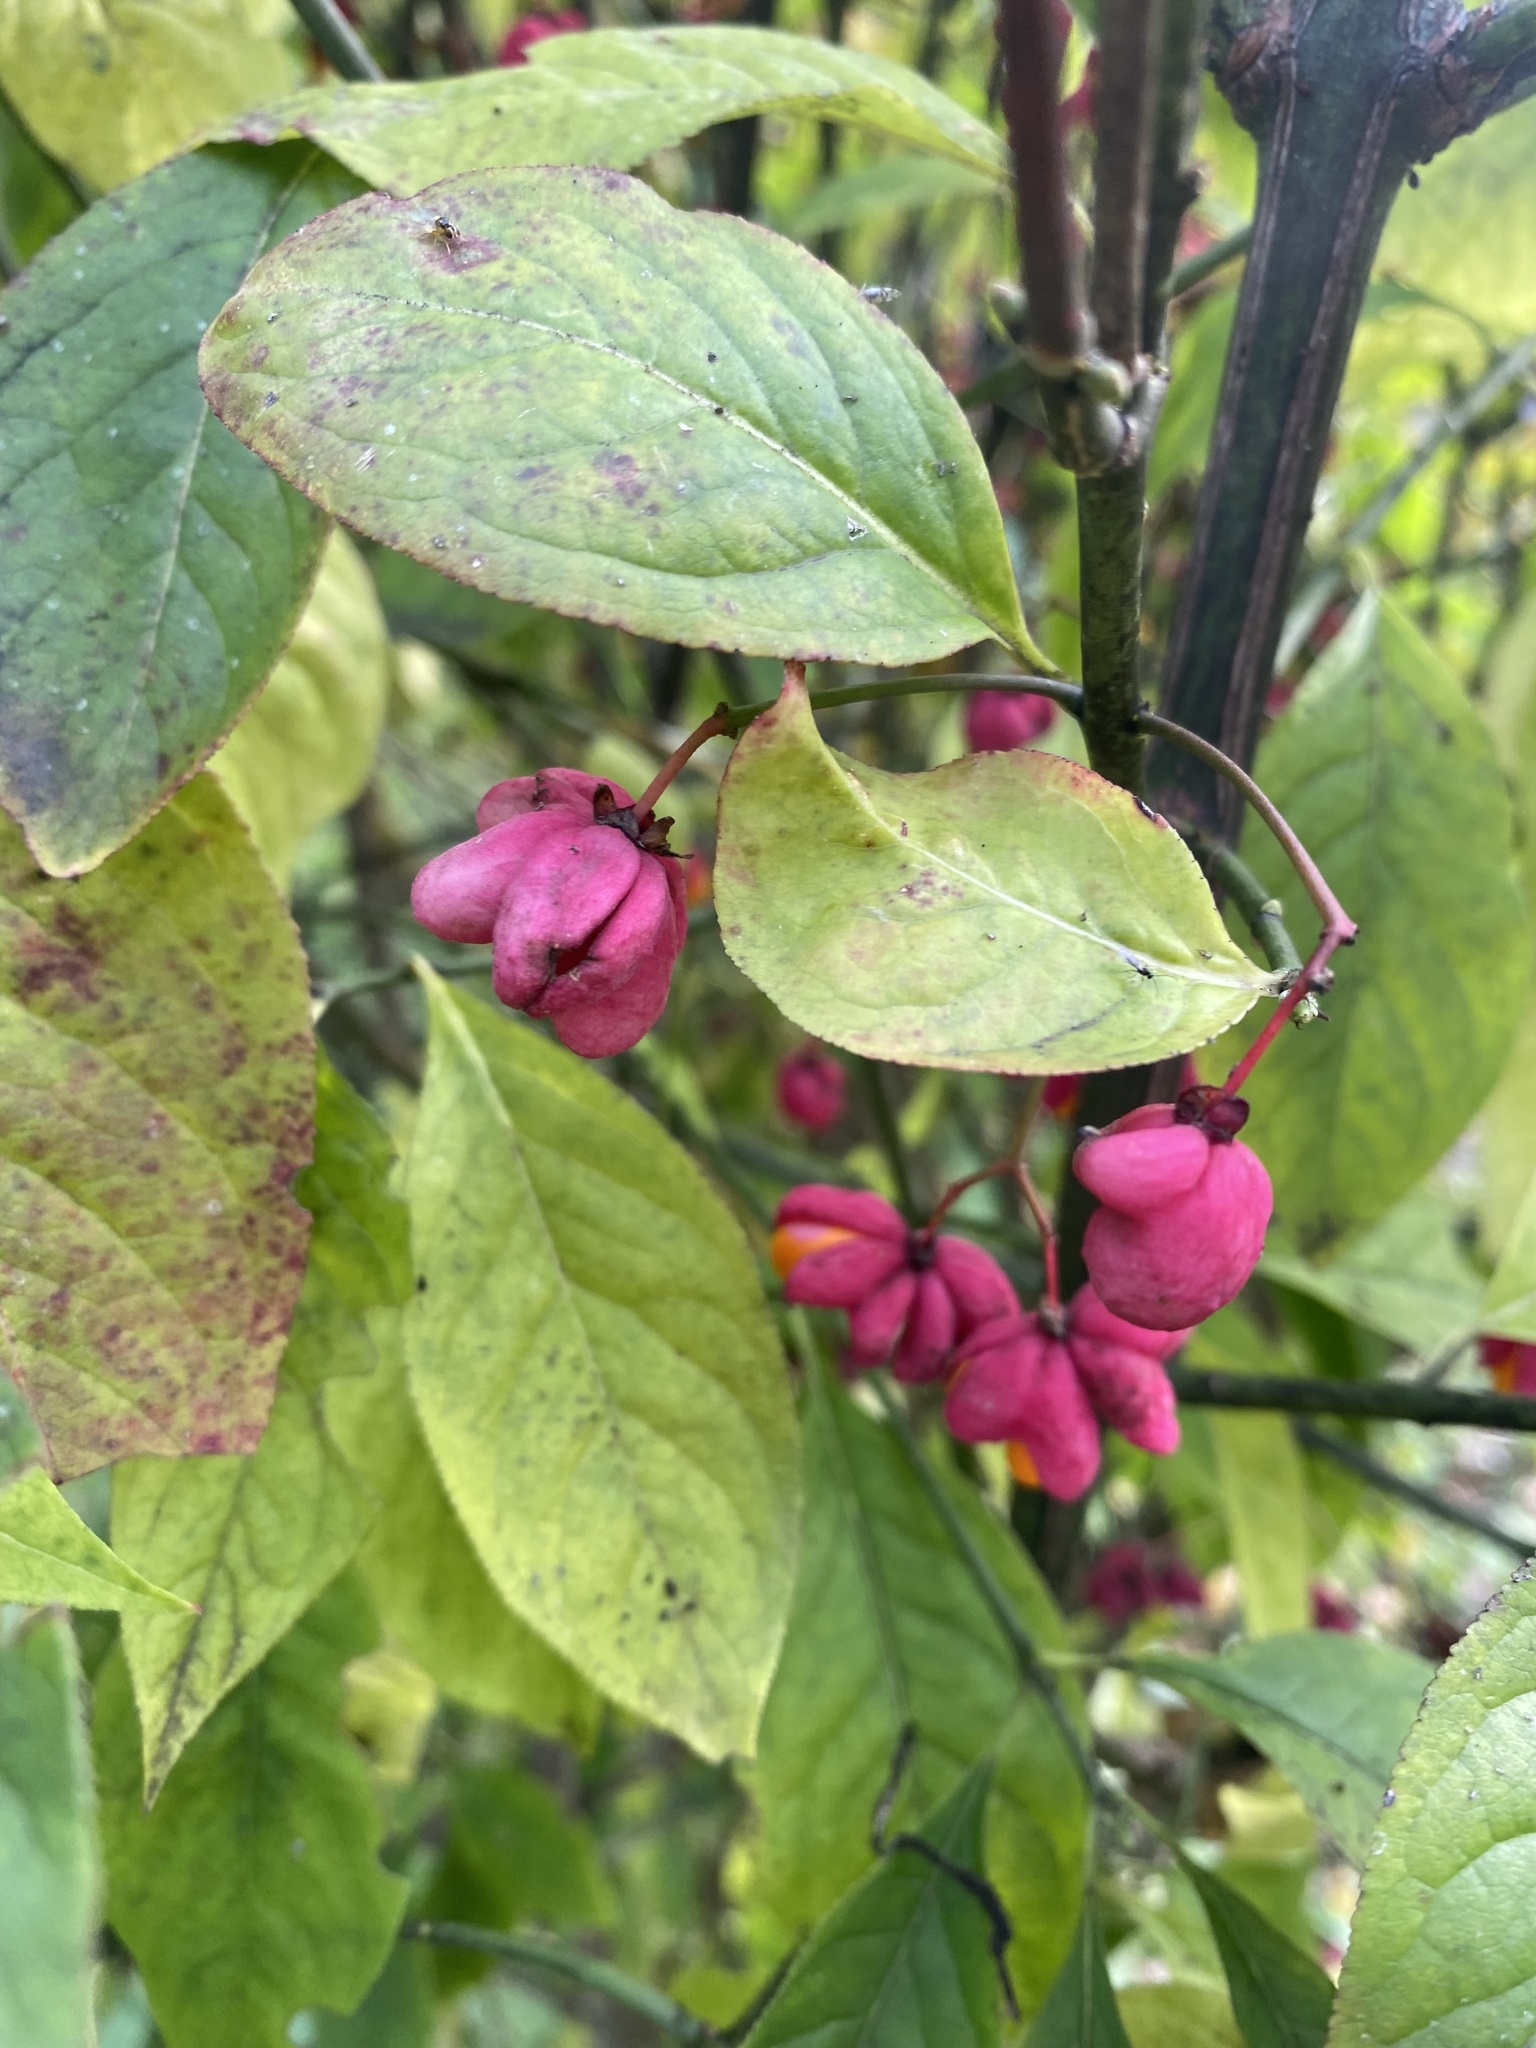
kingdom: Plantae
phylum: Tracheophyta
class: Magnoliopsida
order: Celastrales
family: Celastraceae
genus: Euonymus
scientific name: Euonymus europaeus
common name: Spindle
